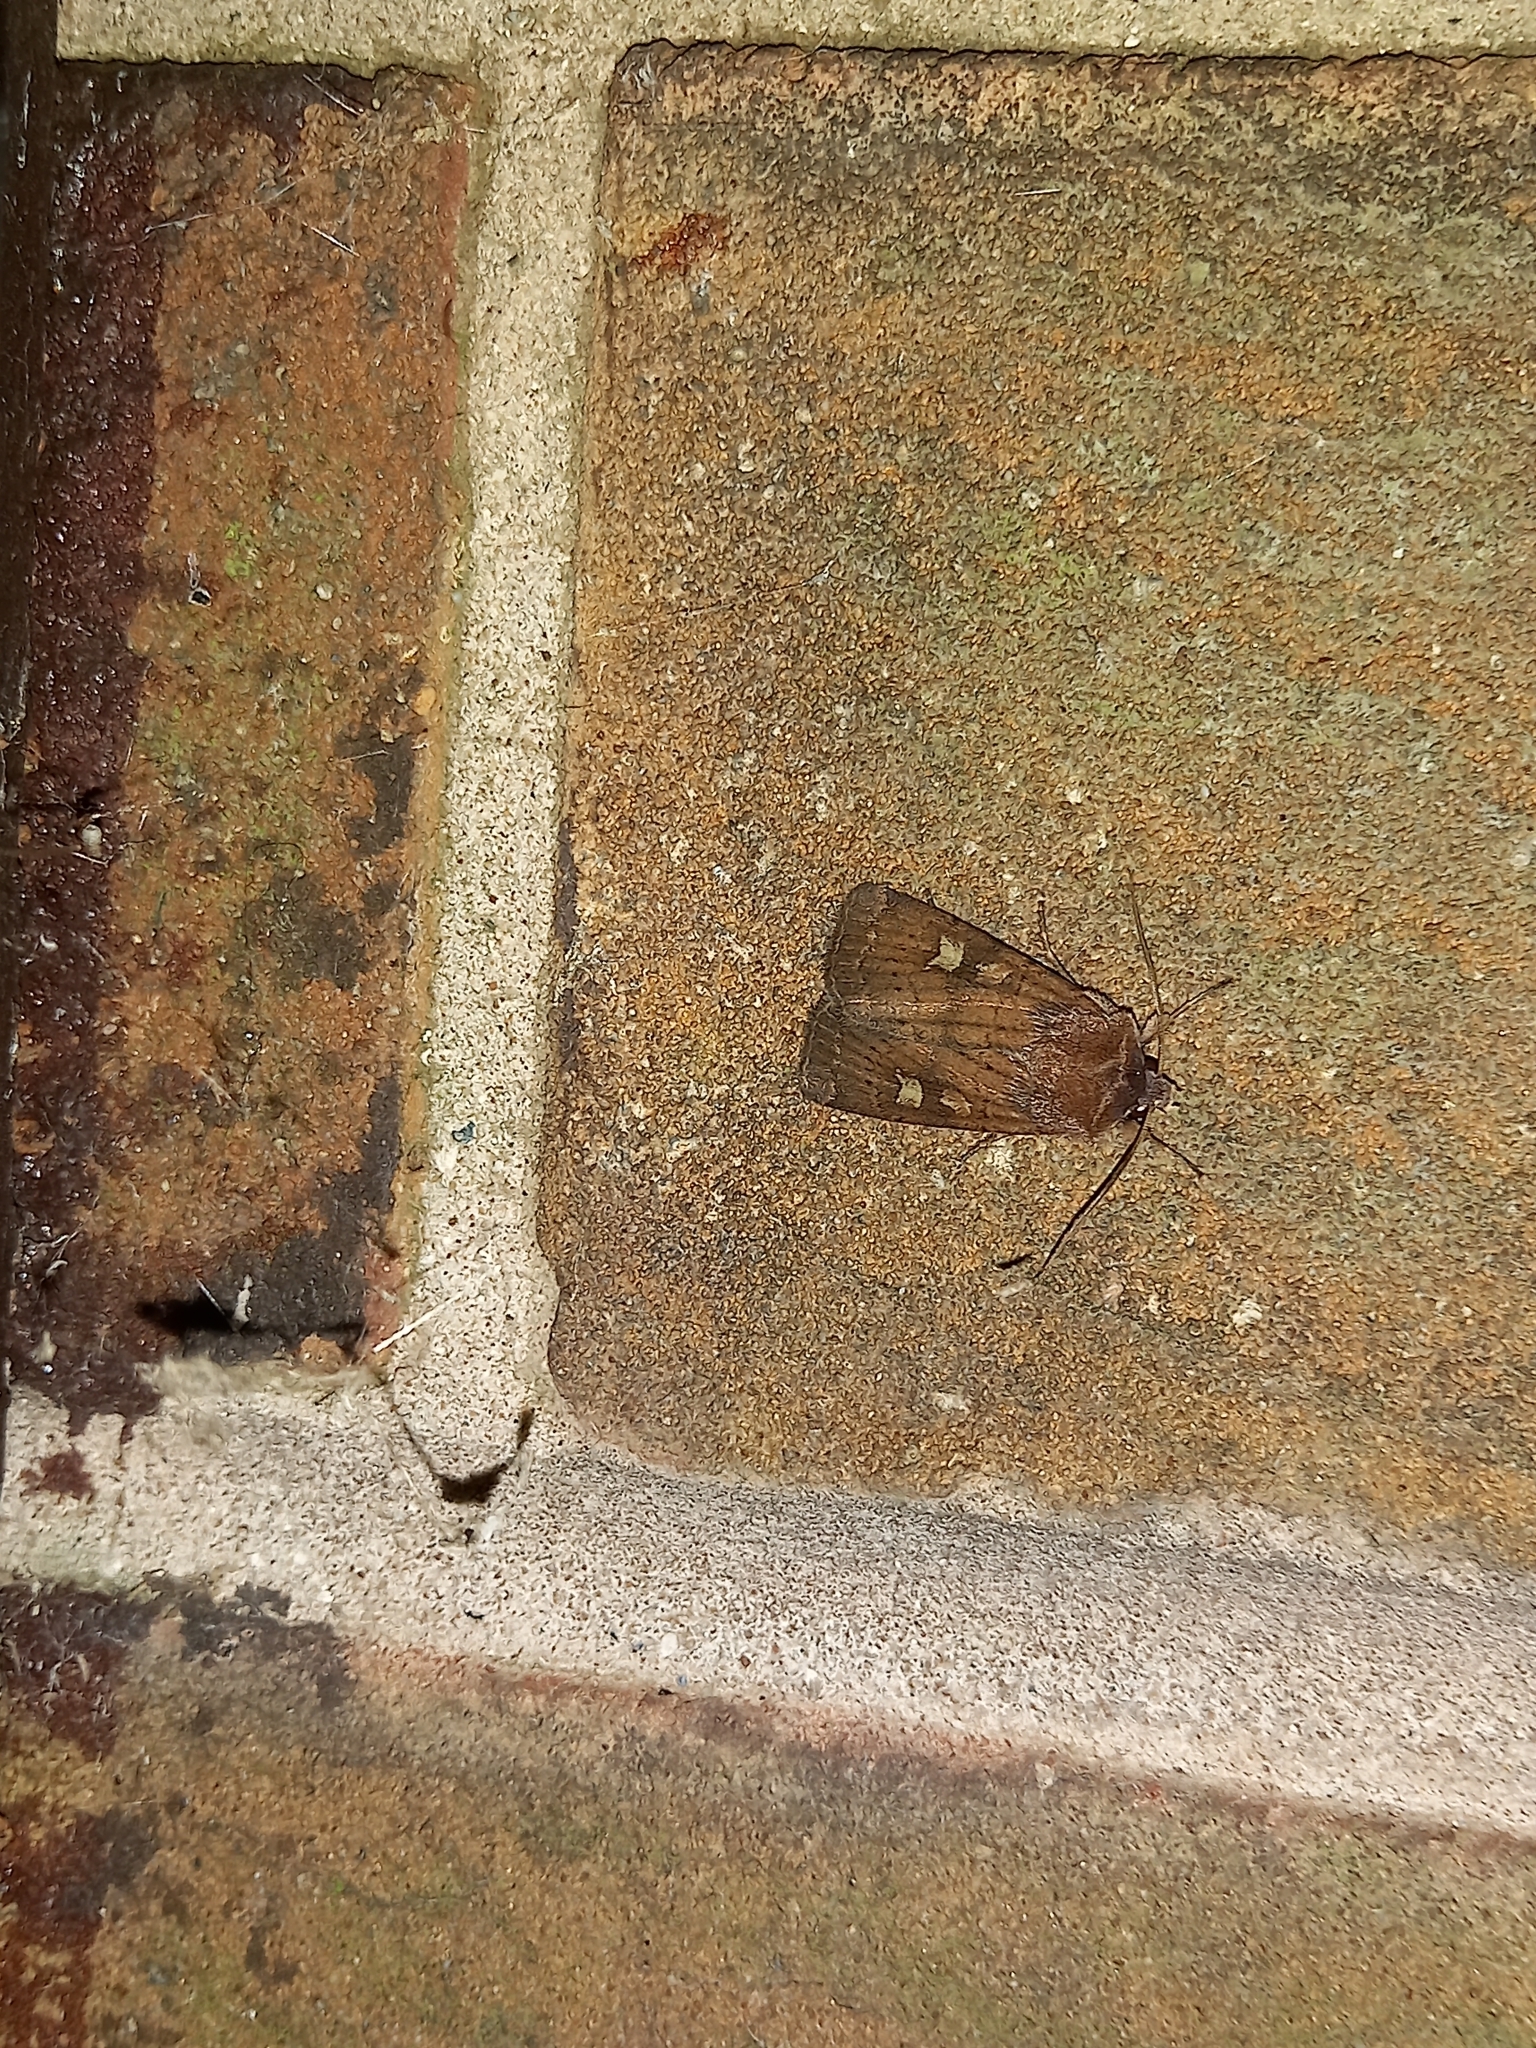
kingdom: Animalia
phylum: Arthropoda
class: Insecta
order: Lepidoptera
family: Noctuidae
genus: Xestia
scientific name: Xestia xanthographa
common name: Square-spot rustic
